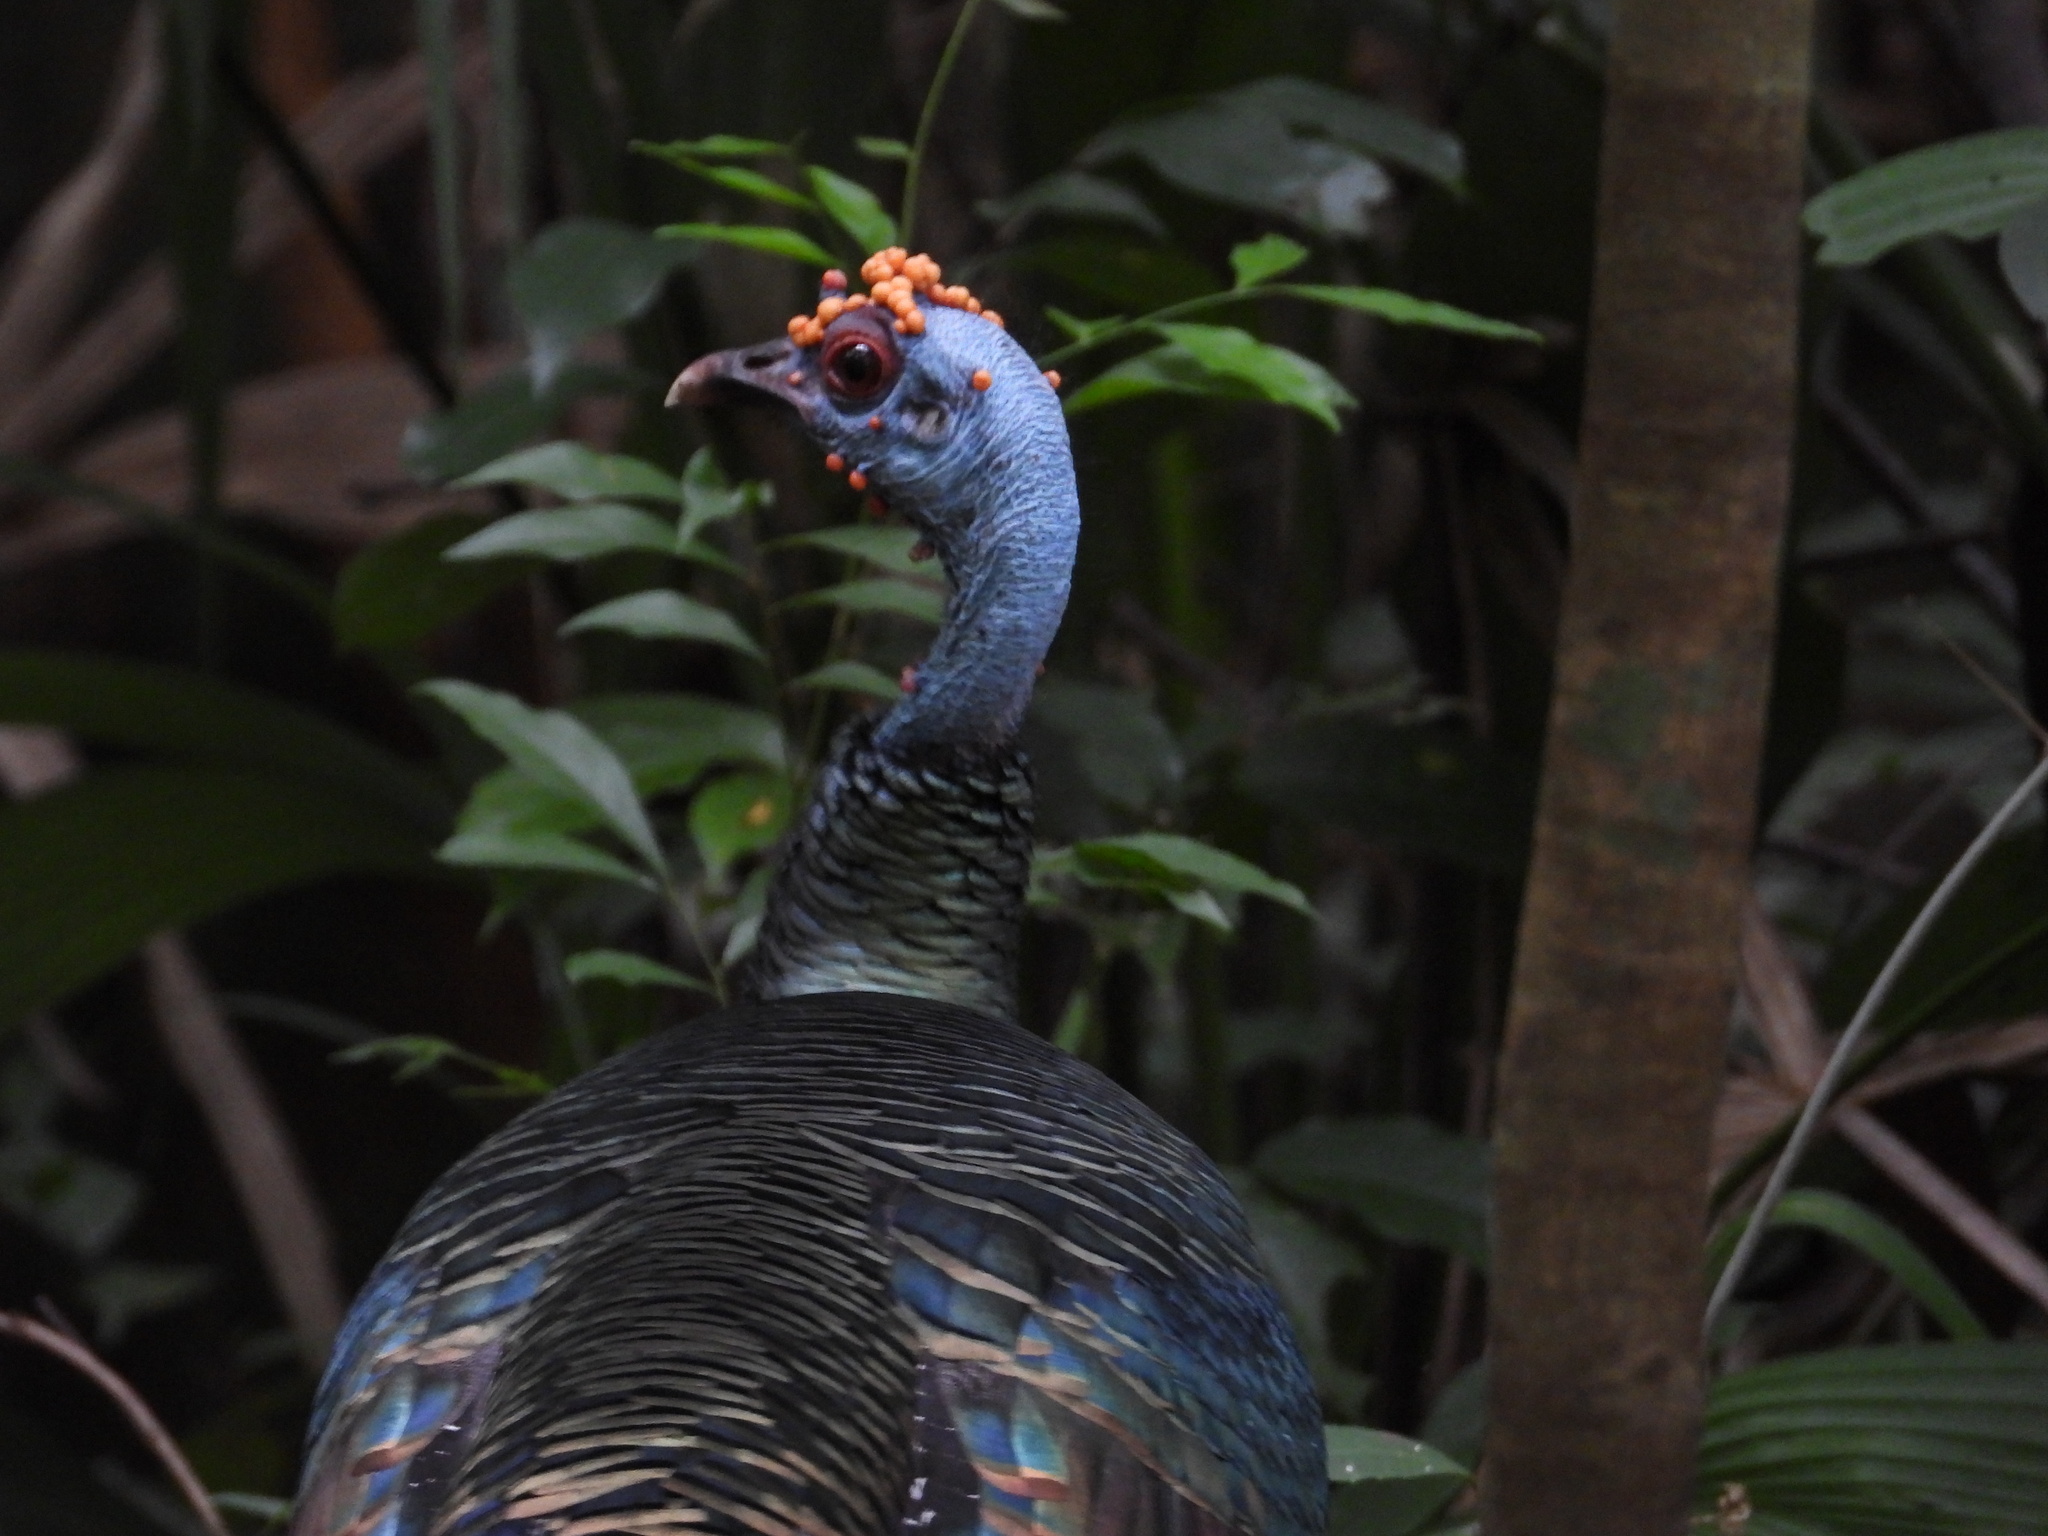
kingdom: Animalia
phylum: Chordata
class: Aves
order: Galliformes
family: Phasianidae
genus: Meleagris
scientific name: Meleagris ocellata
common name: Ocellated turkey
